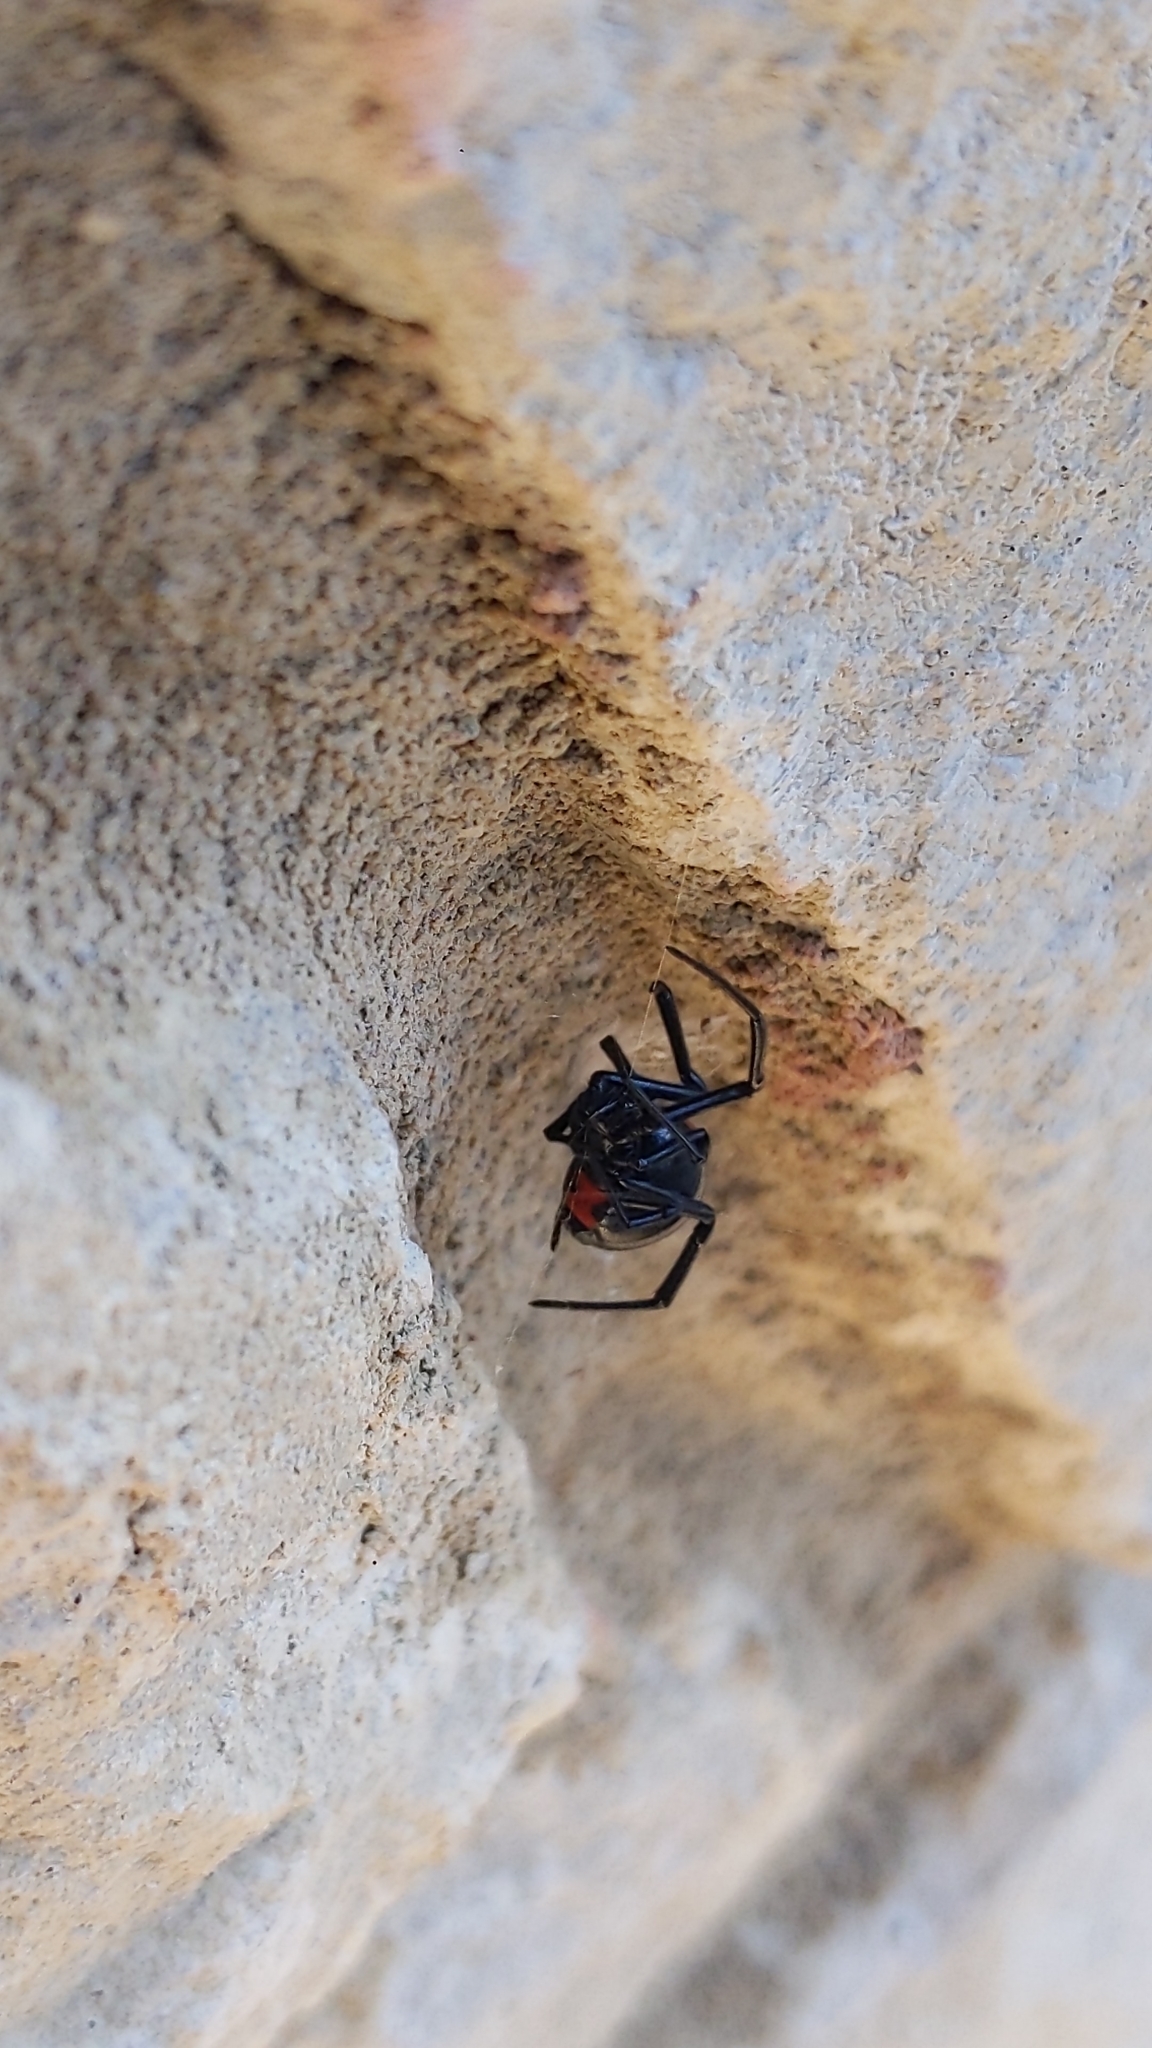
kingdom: Animalia
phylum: Arthropoda
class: Arachnida
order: Araneae
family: Theridiidae
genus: Latrodectus
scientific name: Latrodectus mactans
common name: Cobweb spiders
